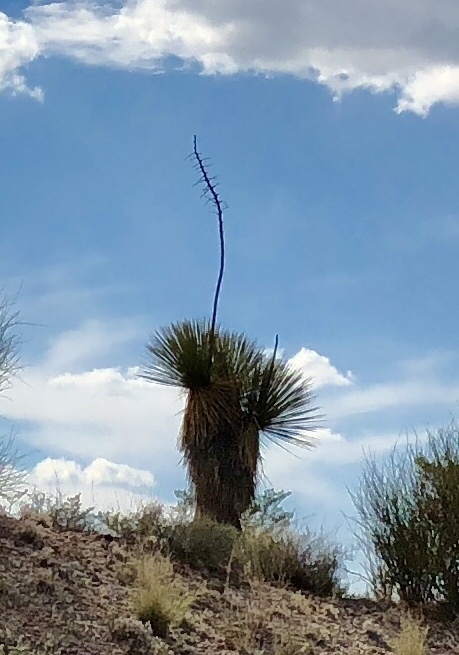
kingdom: Plantae
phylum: Tracheophyta
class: Liliopsida
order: Asparagales
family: Asparagaceae
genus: Yucca
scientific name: Yucca elata
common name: Palmella
